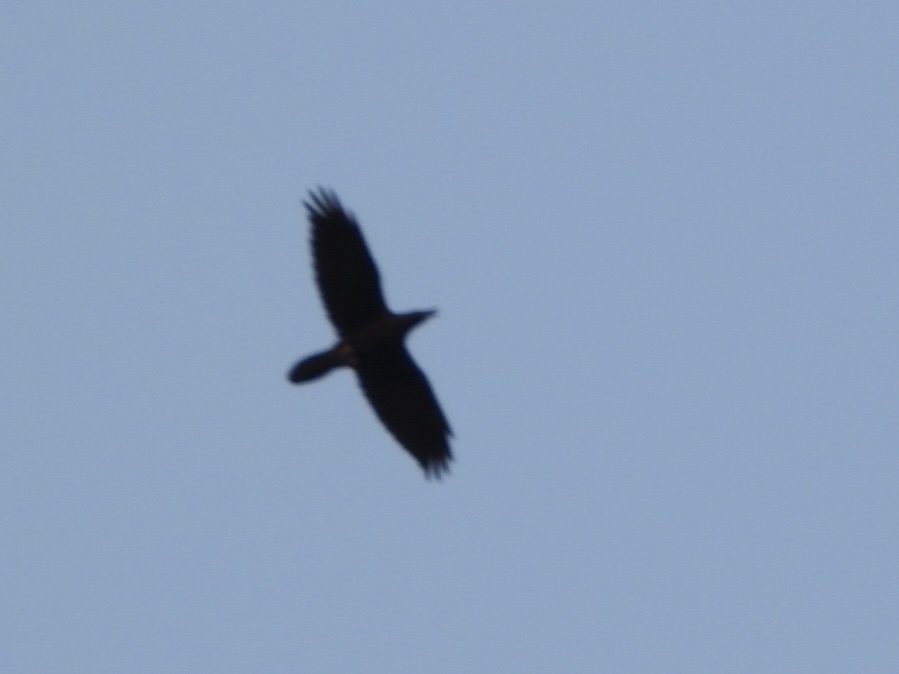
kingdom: Animalia
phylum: Chordata
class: Aves
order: Passeriformes
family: Corvidae
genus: Corvus
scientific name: Corvus corax
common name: Common raven
